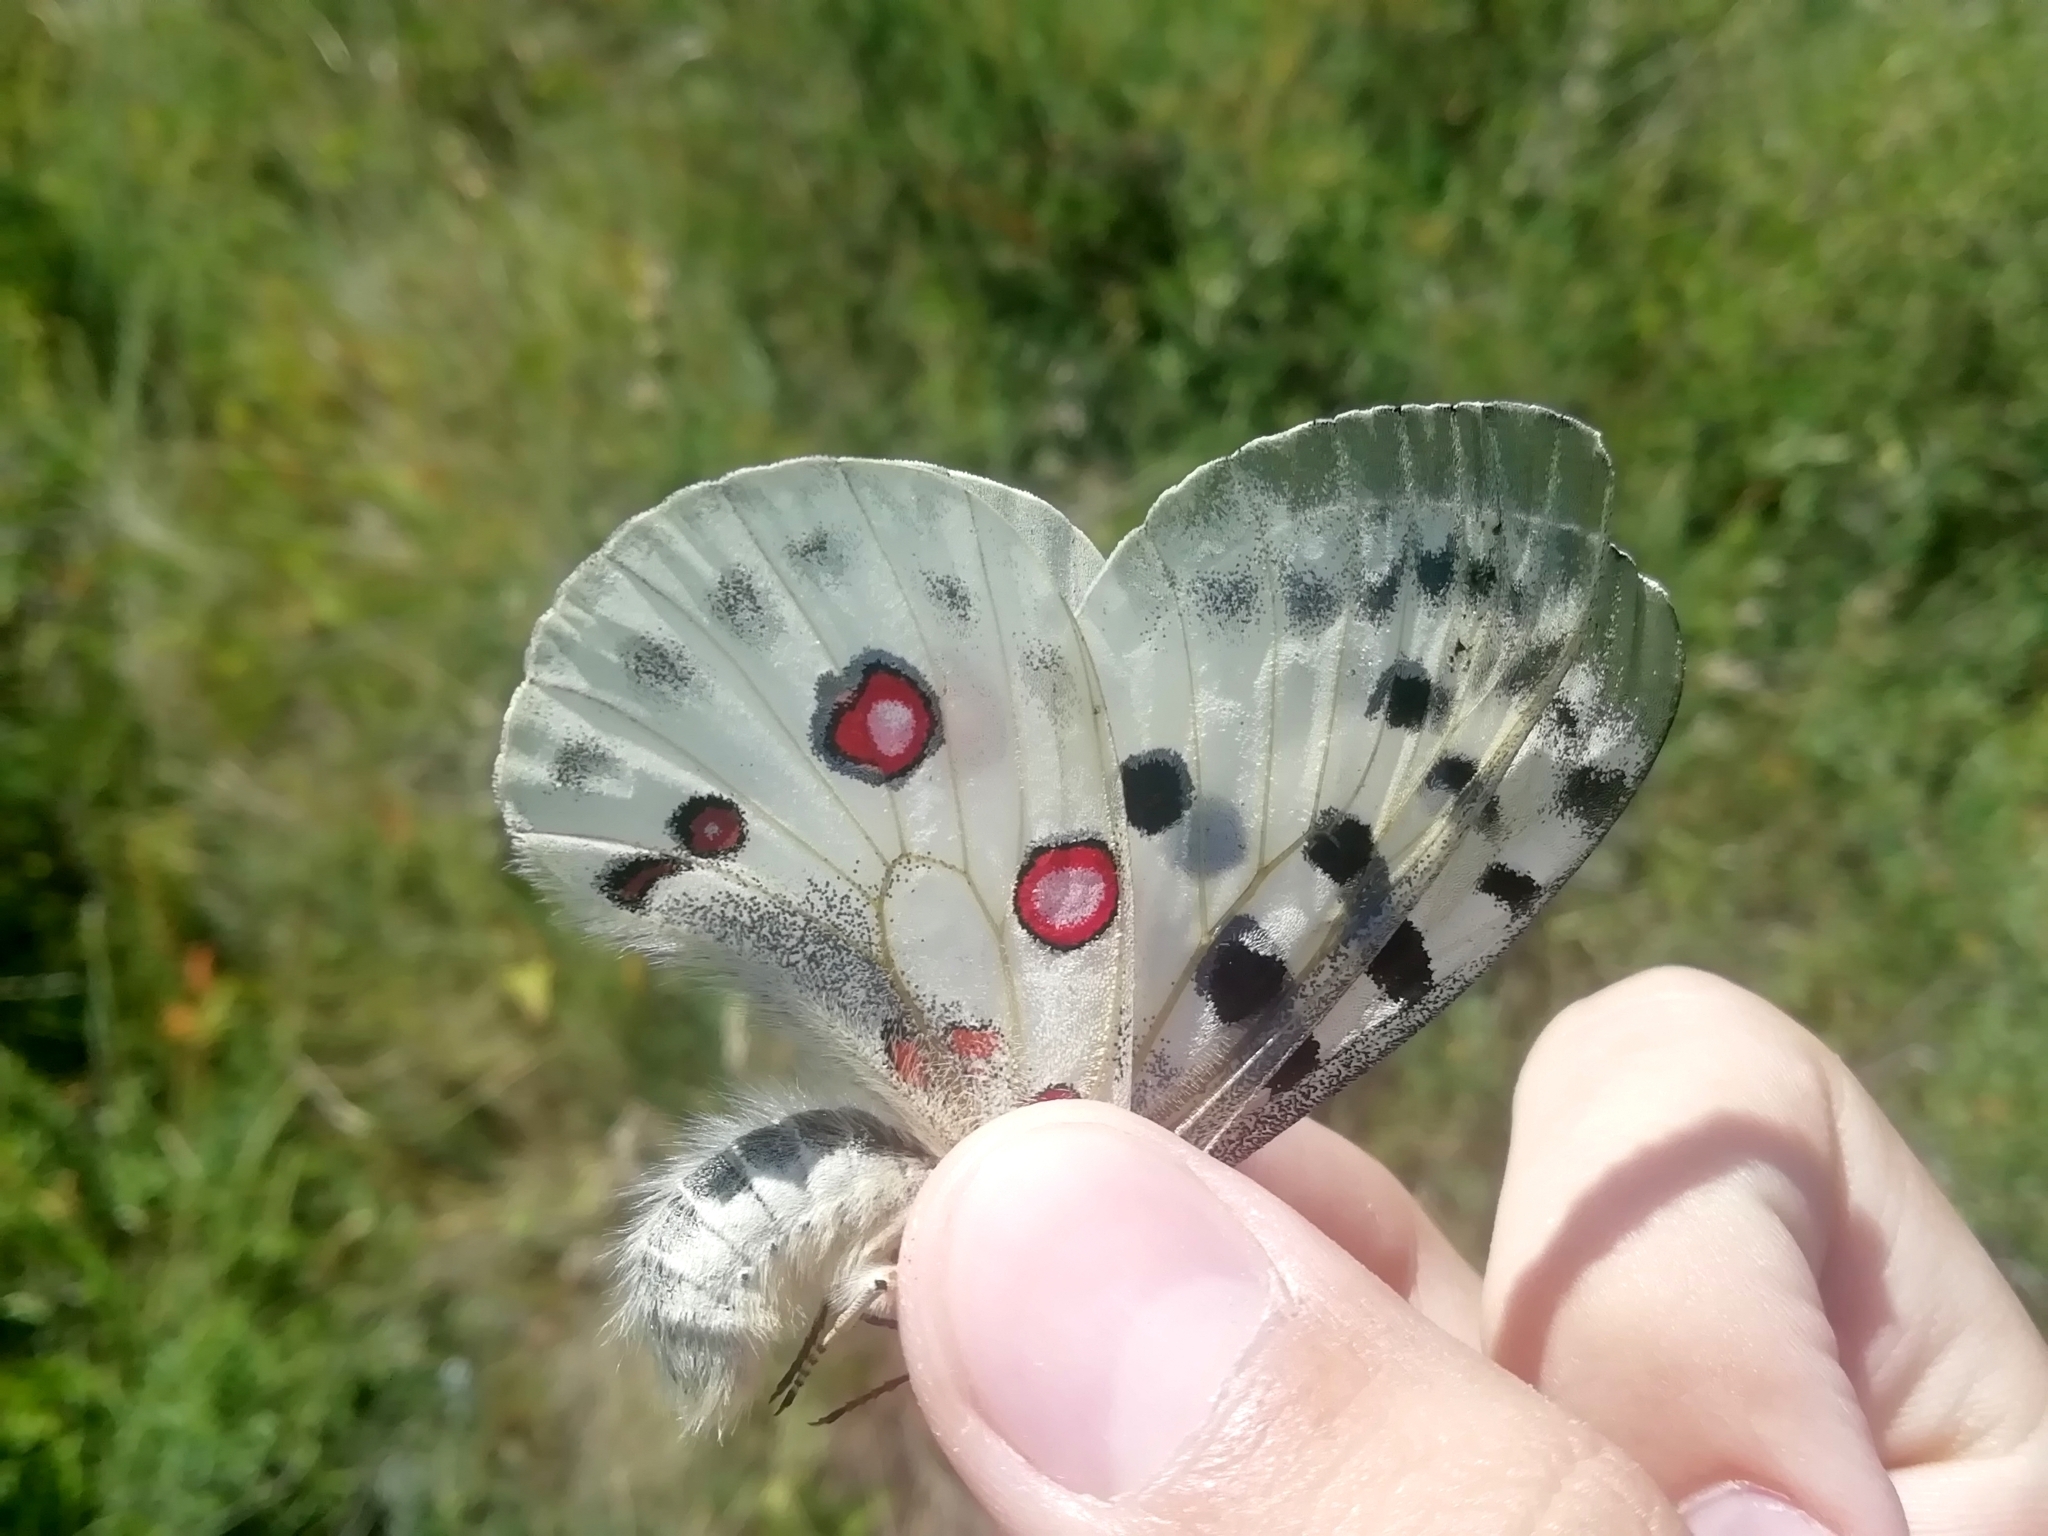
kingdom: Animalia
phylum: Arthropoda
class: Insecta
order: Lepidoptera
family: Papilionidae
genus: Parnassius
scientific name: Parnassius apollo
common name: Apollo
